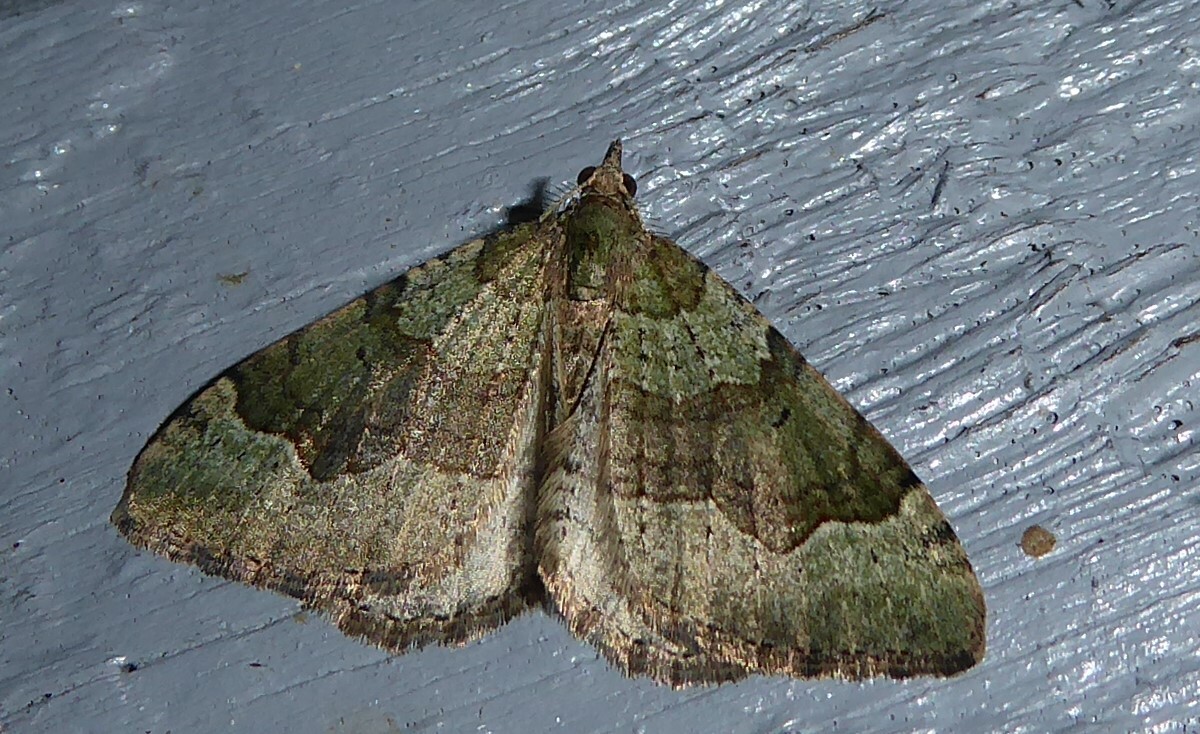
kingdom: Animalia
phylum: Arthropoda
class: Insecta
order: Lepidoptera
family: Geometridae
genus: Epyaxa
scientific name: Epyaxa rosearia
